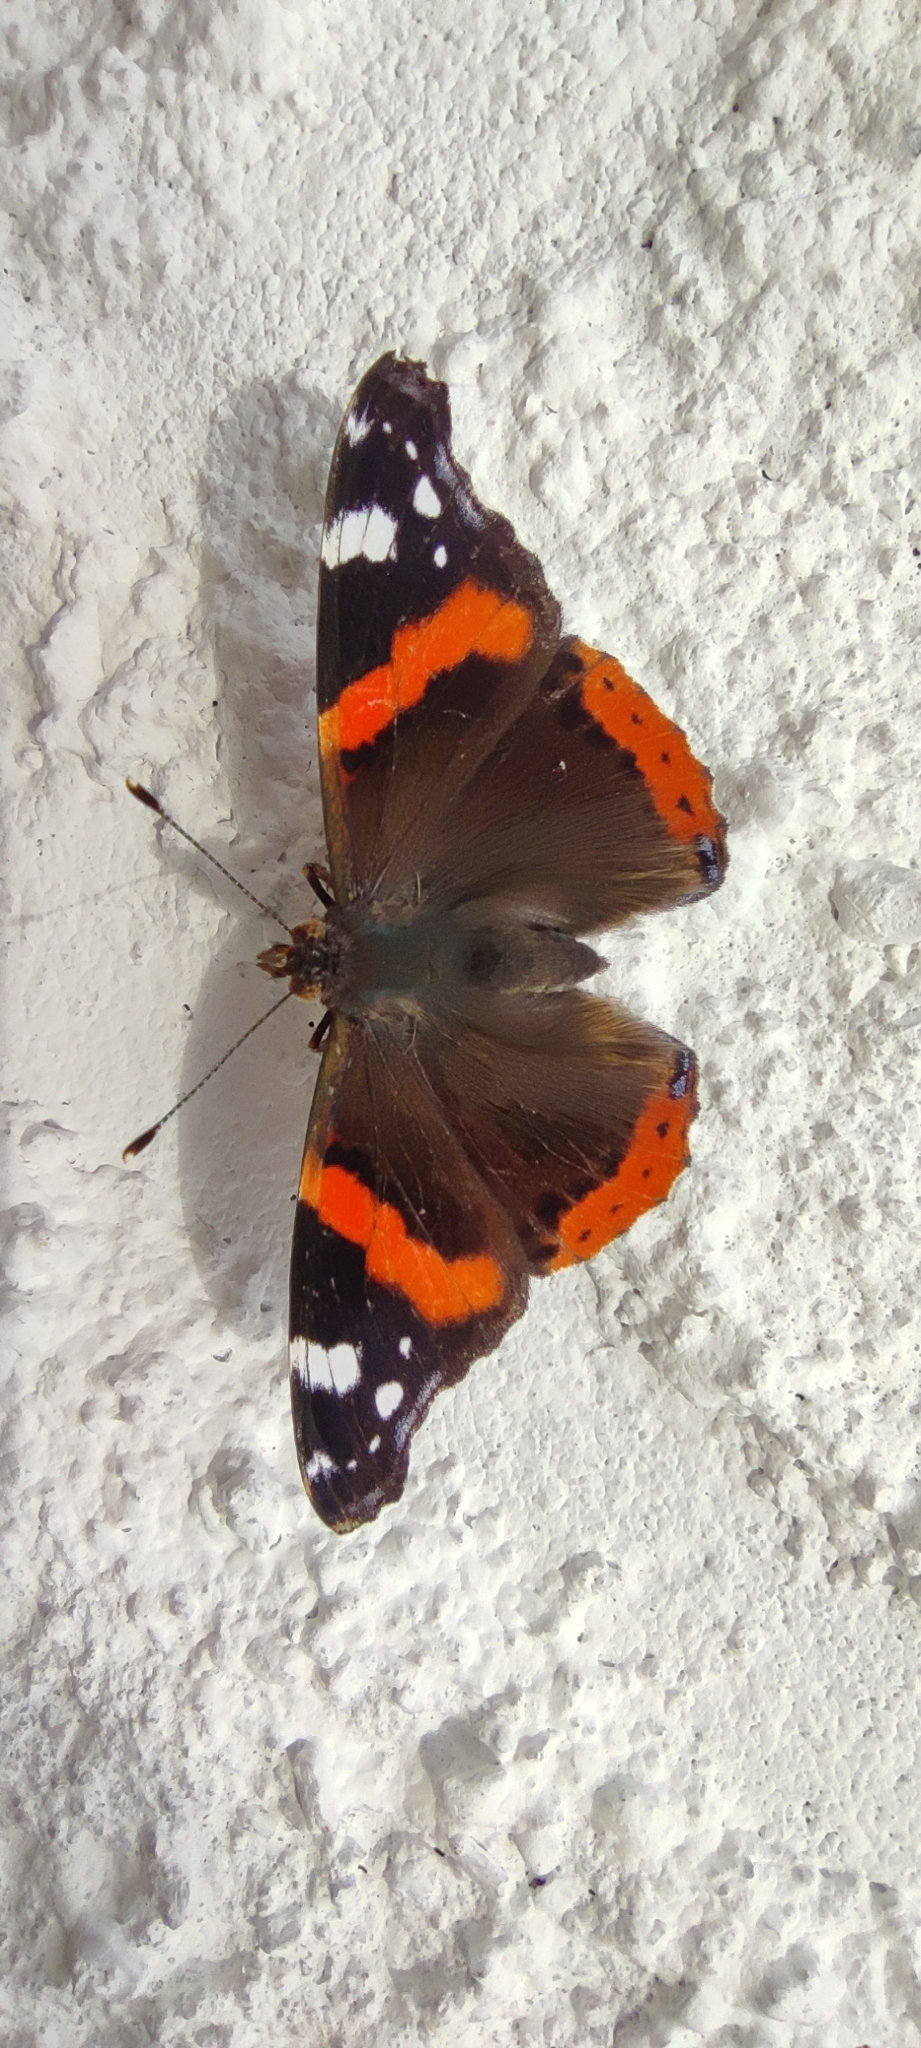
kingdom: Animalia
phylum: Arthropoda
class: Insecta
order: Lepidoptera
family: Nymphalidae
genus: Vanessa
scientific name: Vanessa atalanta
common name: Red admiral
